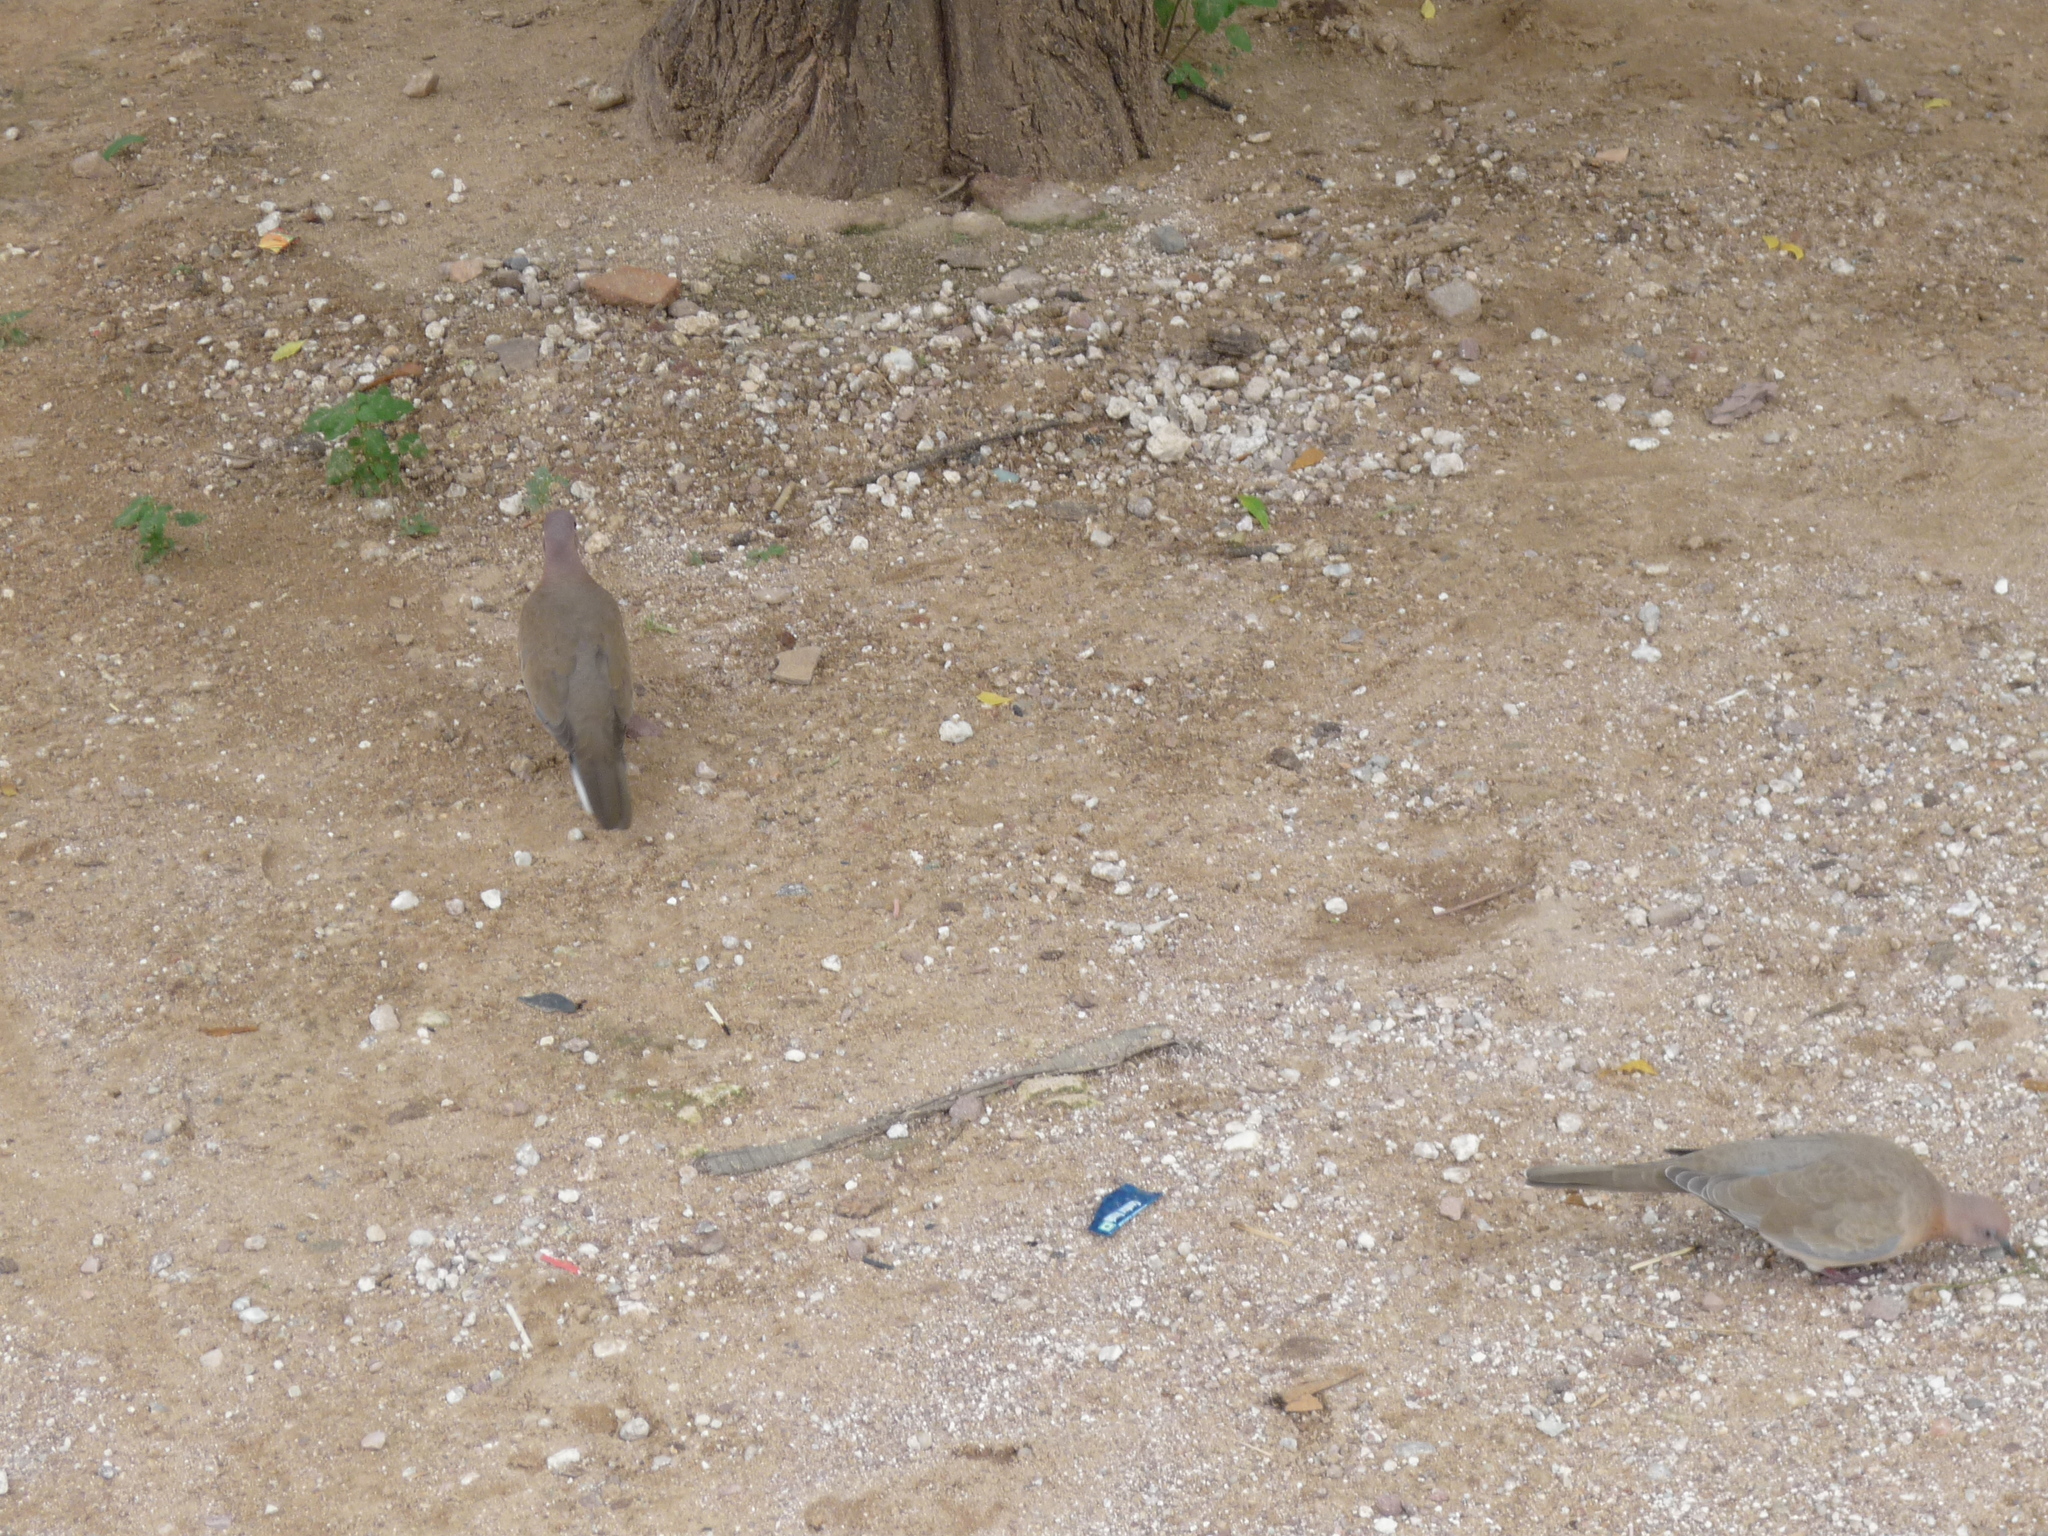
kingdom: Animalia
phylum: Chordata
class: Aves
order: Columbiformes
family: Columbidae
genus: Spilopelia
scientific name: Spilopelia senegalensis
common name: Laughing dove
